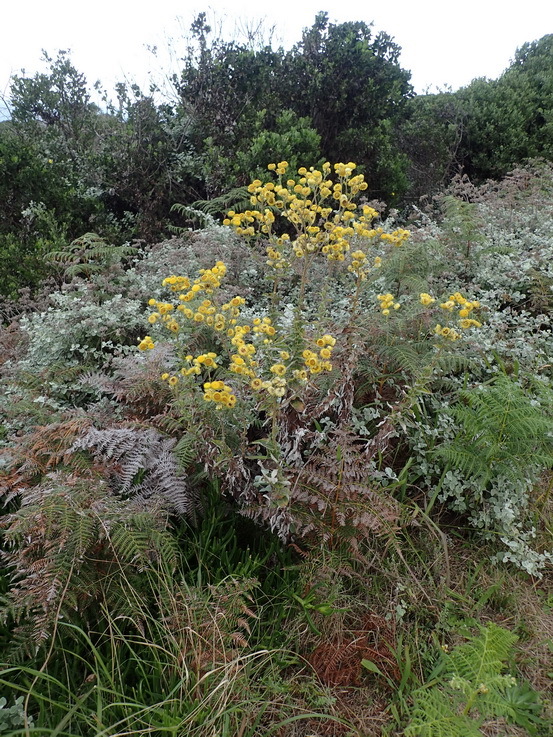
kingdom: Plantae
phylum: Tracheophyta
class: Magnoliopsida
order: Asterales
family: Asteraceae
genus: Helichrysum
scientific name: Helichrysum foetidum
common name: Stinking everlasting
